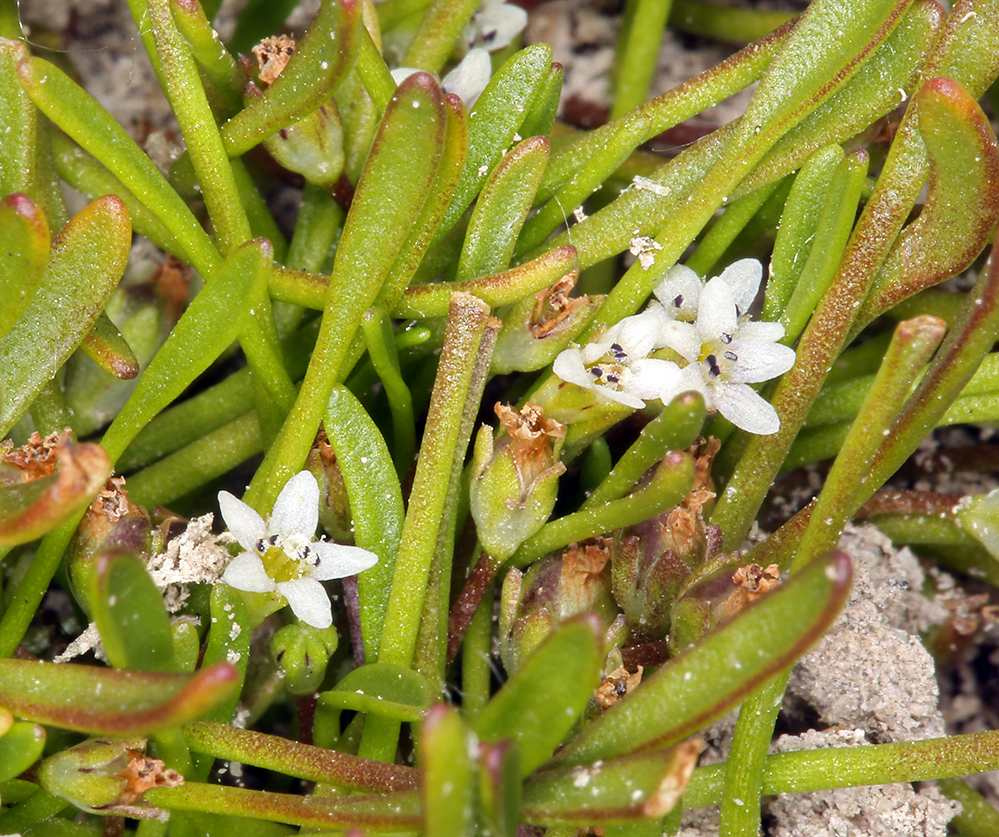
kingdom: Plantae
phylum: Tracheophyta
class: Magnoliopsida
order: Lamiales
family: Scrophulariaceae
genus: Limosella
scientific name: Limosella acaulis
